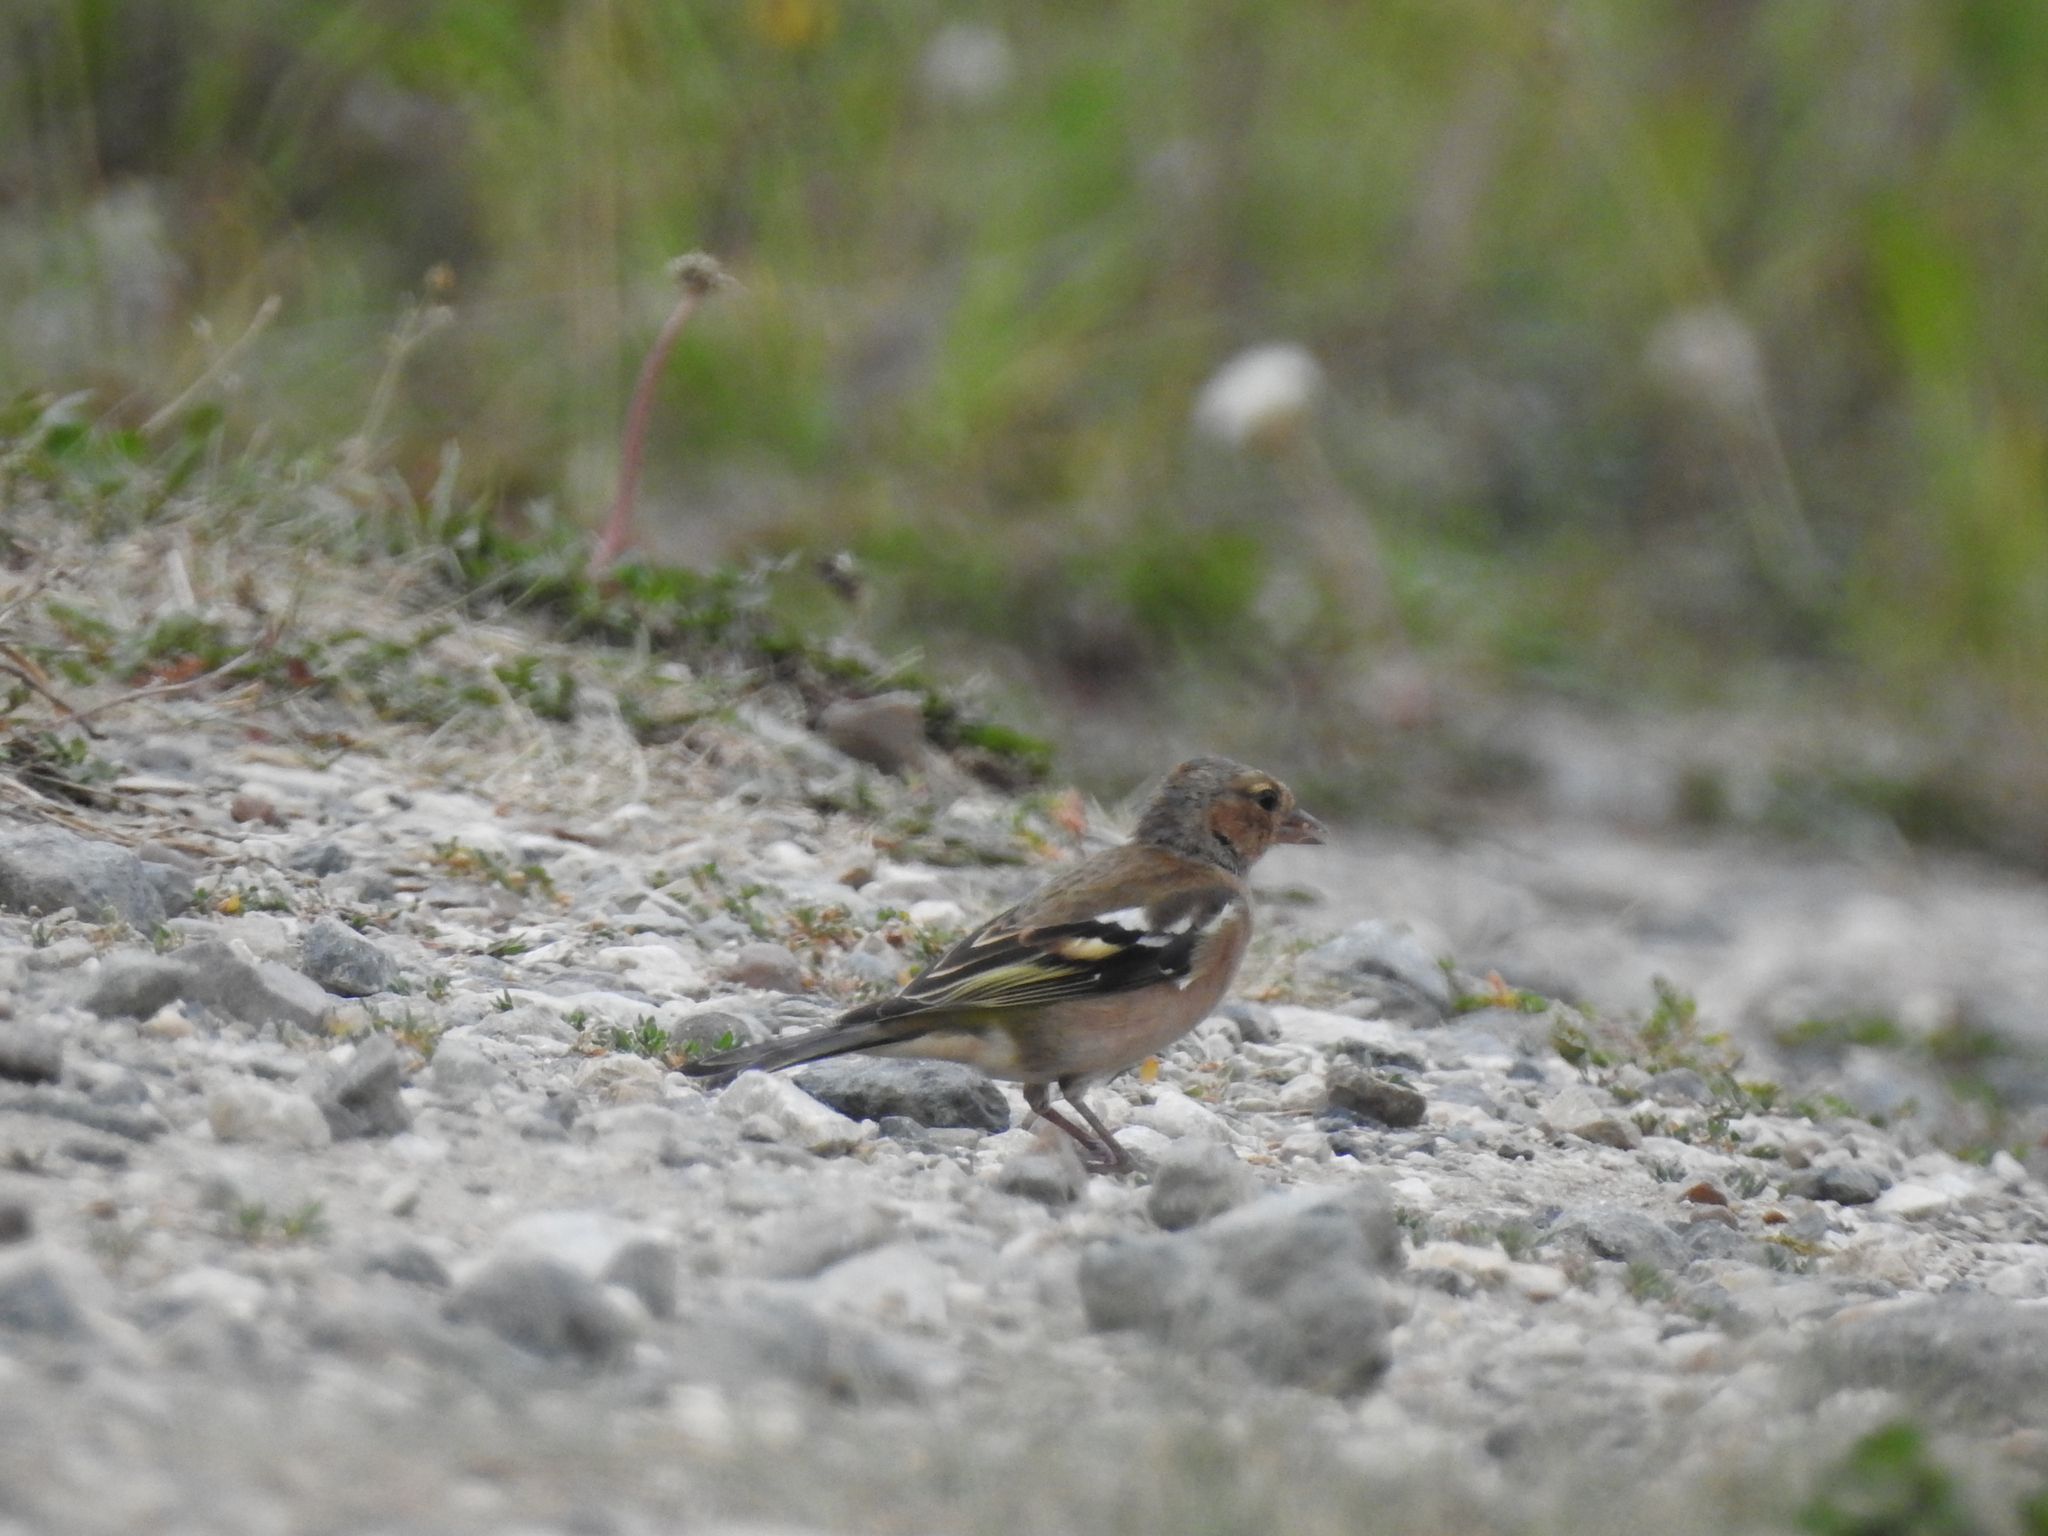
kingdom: Animalia
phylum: Chordata
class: Aves
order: Passeriformes
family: Fringillidae
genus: Fringilla
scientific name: Fringilla coelebs
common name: Common chaffinch
